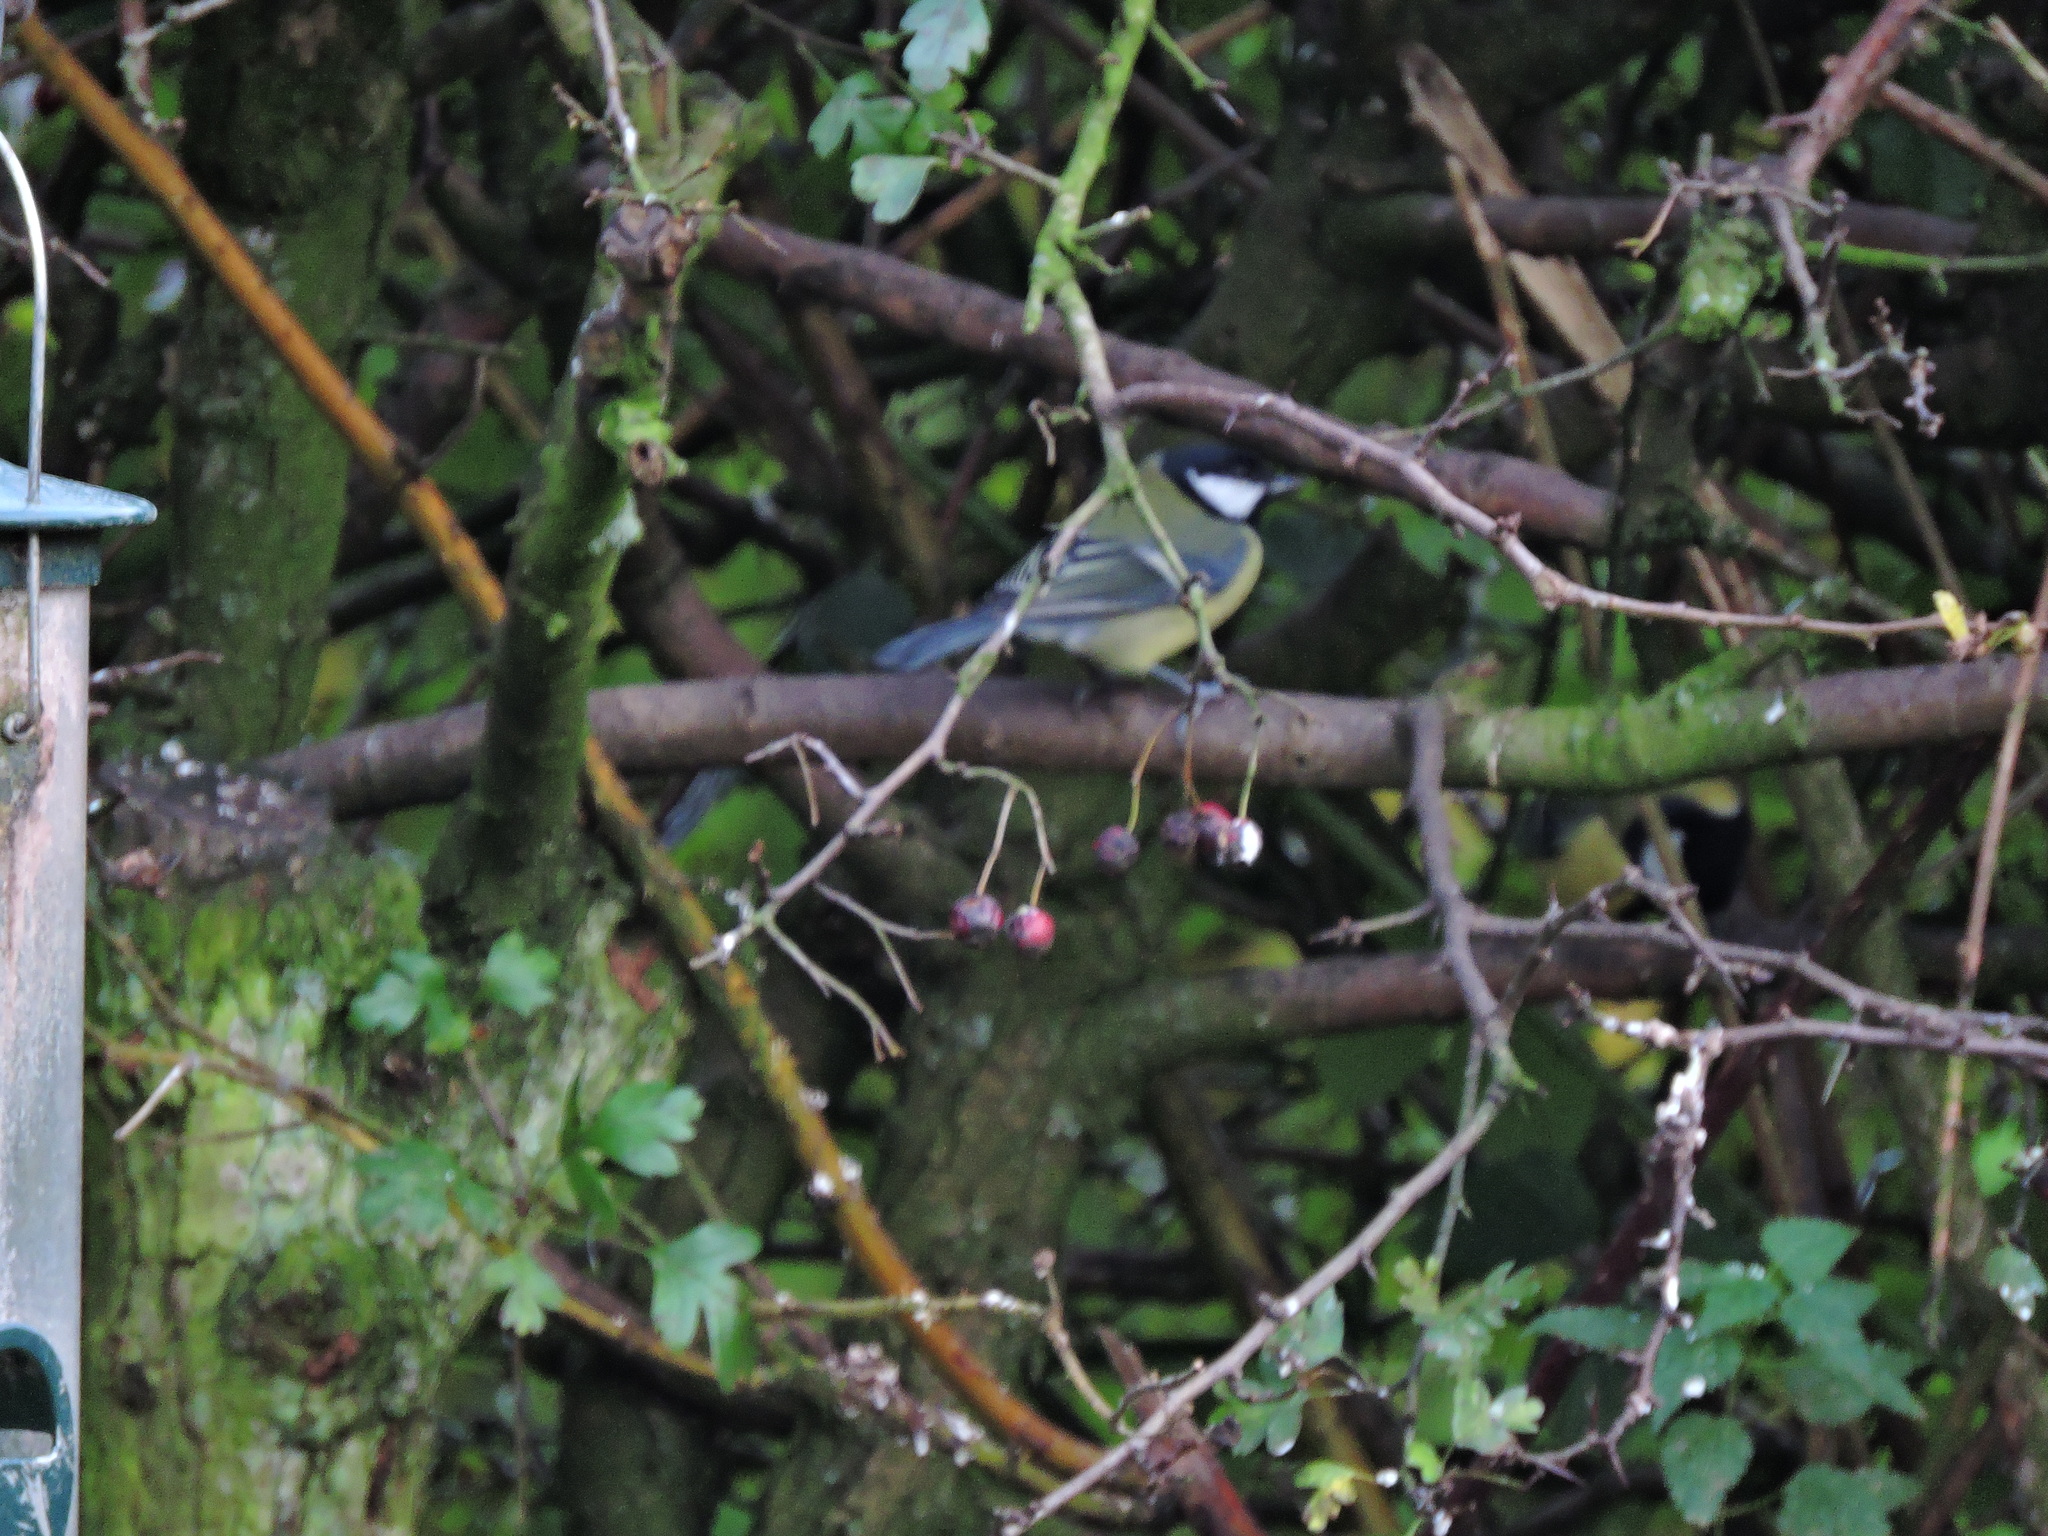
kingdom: Animalia
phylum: Chordata
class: Aves
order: Passeriformes
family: Paridae
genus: Parus
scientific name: Parus major
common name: Great tit
